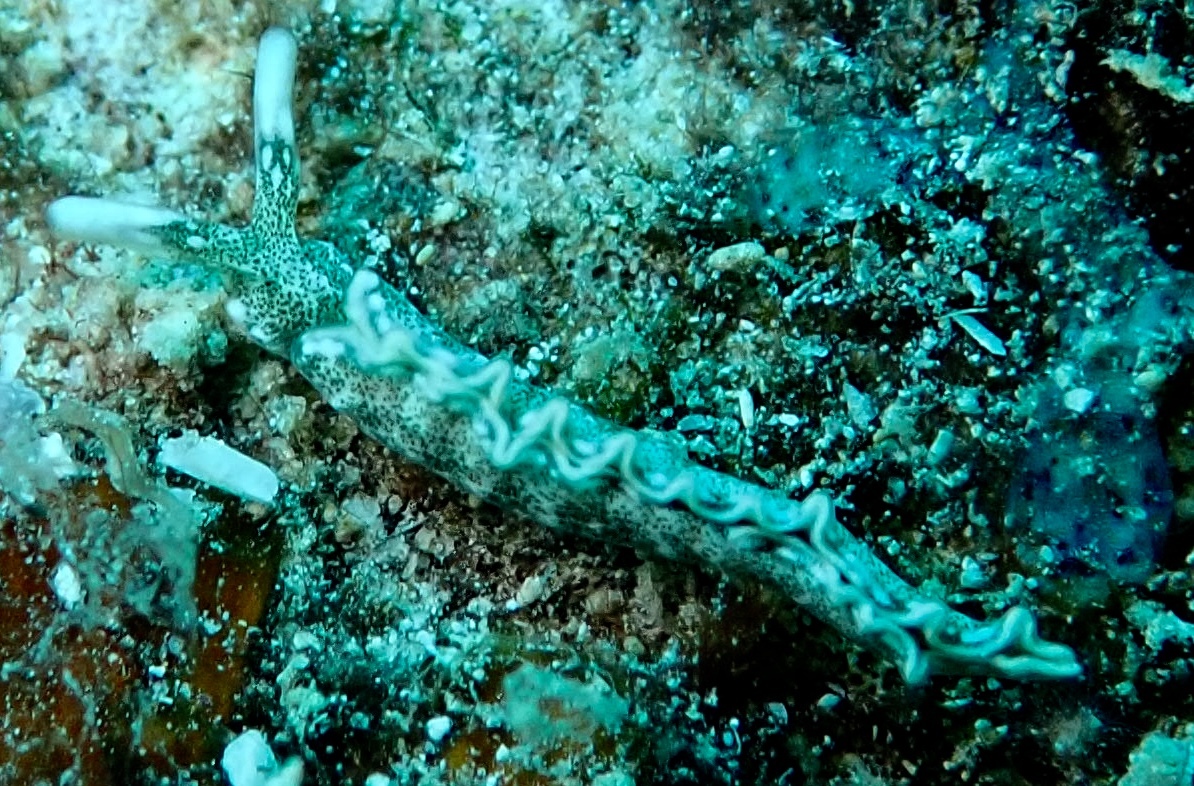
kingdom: Animalia
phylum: Mollusca
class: Gastropoda
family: Plakobranchidae
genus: Thuridilla
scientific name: Thuridilla carlsoni
